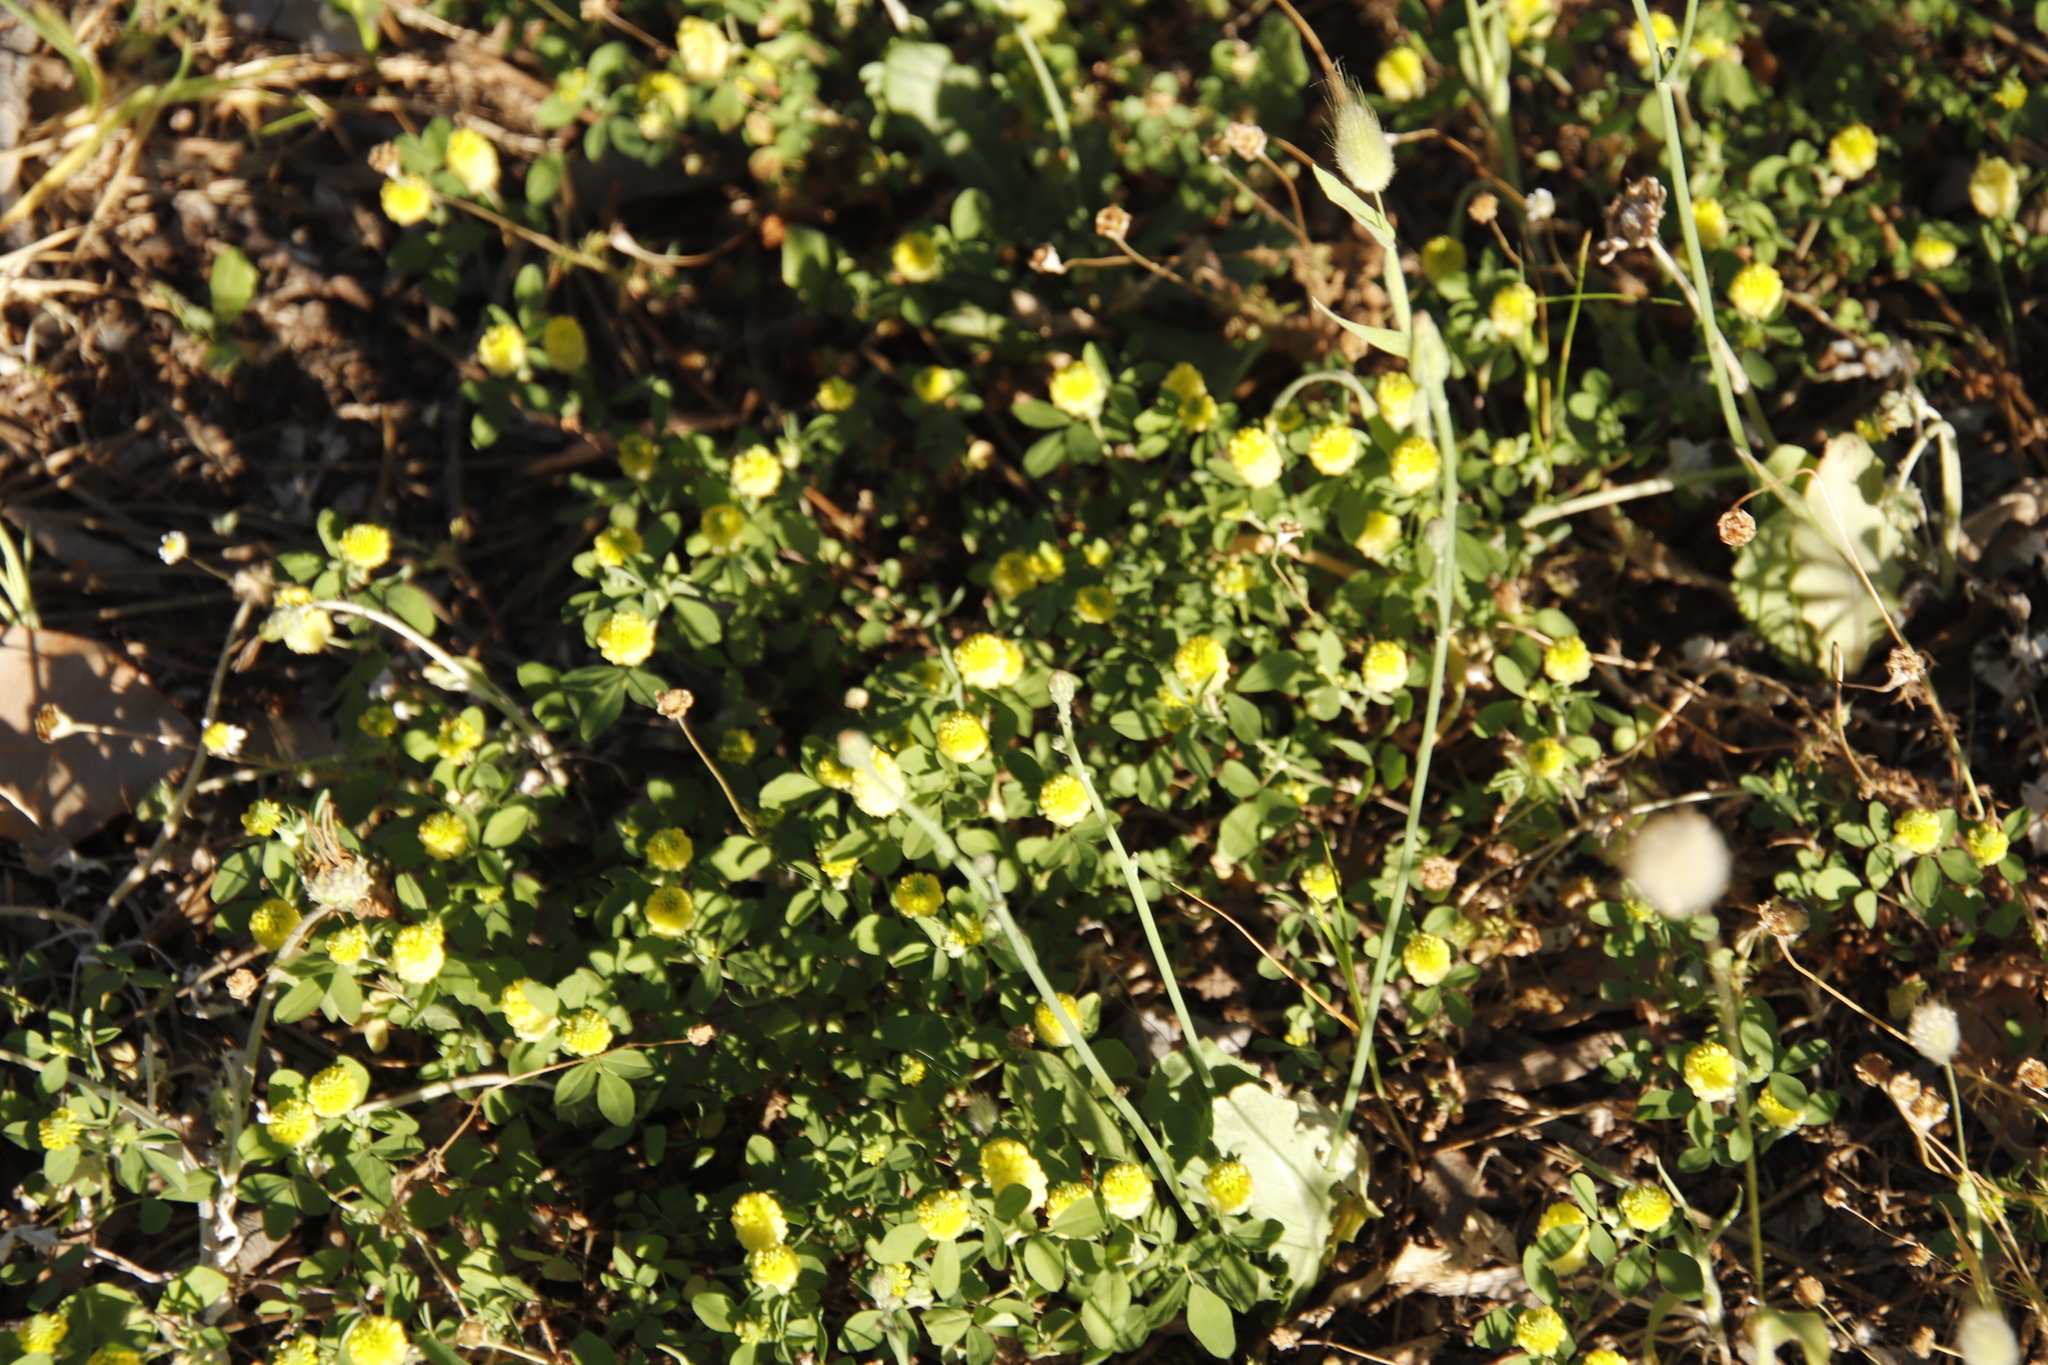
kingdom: Plantae
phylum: Tracheophyta
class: Magnoliopsida
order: Fabales
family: Fabaceae
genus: Trifolium
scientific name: Trifolium campestre
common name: Field clover
